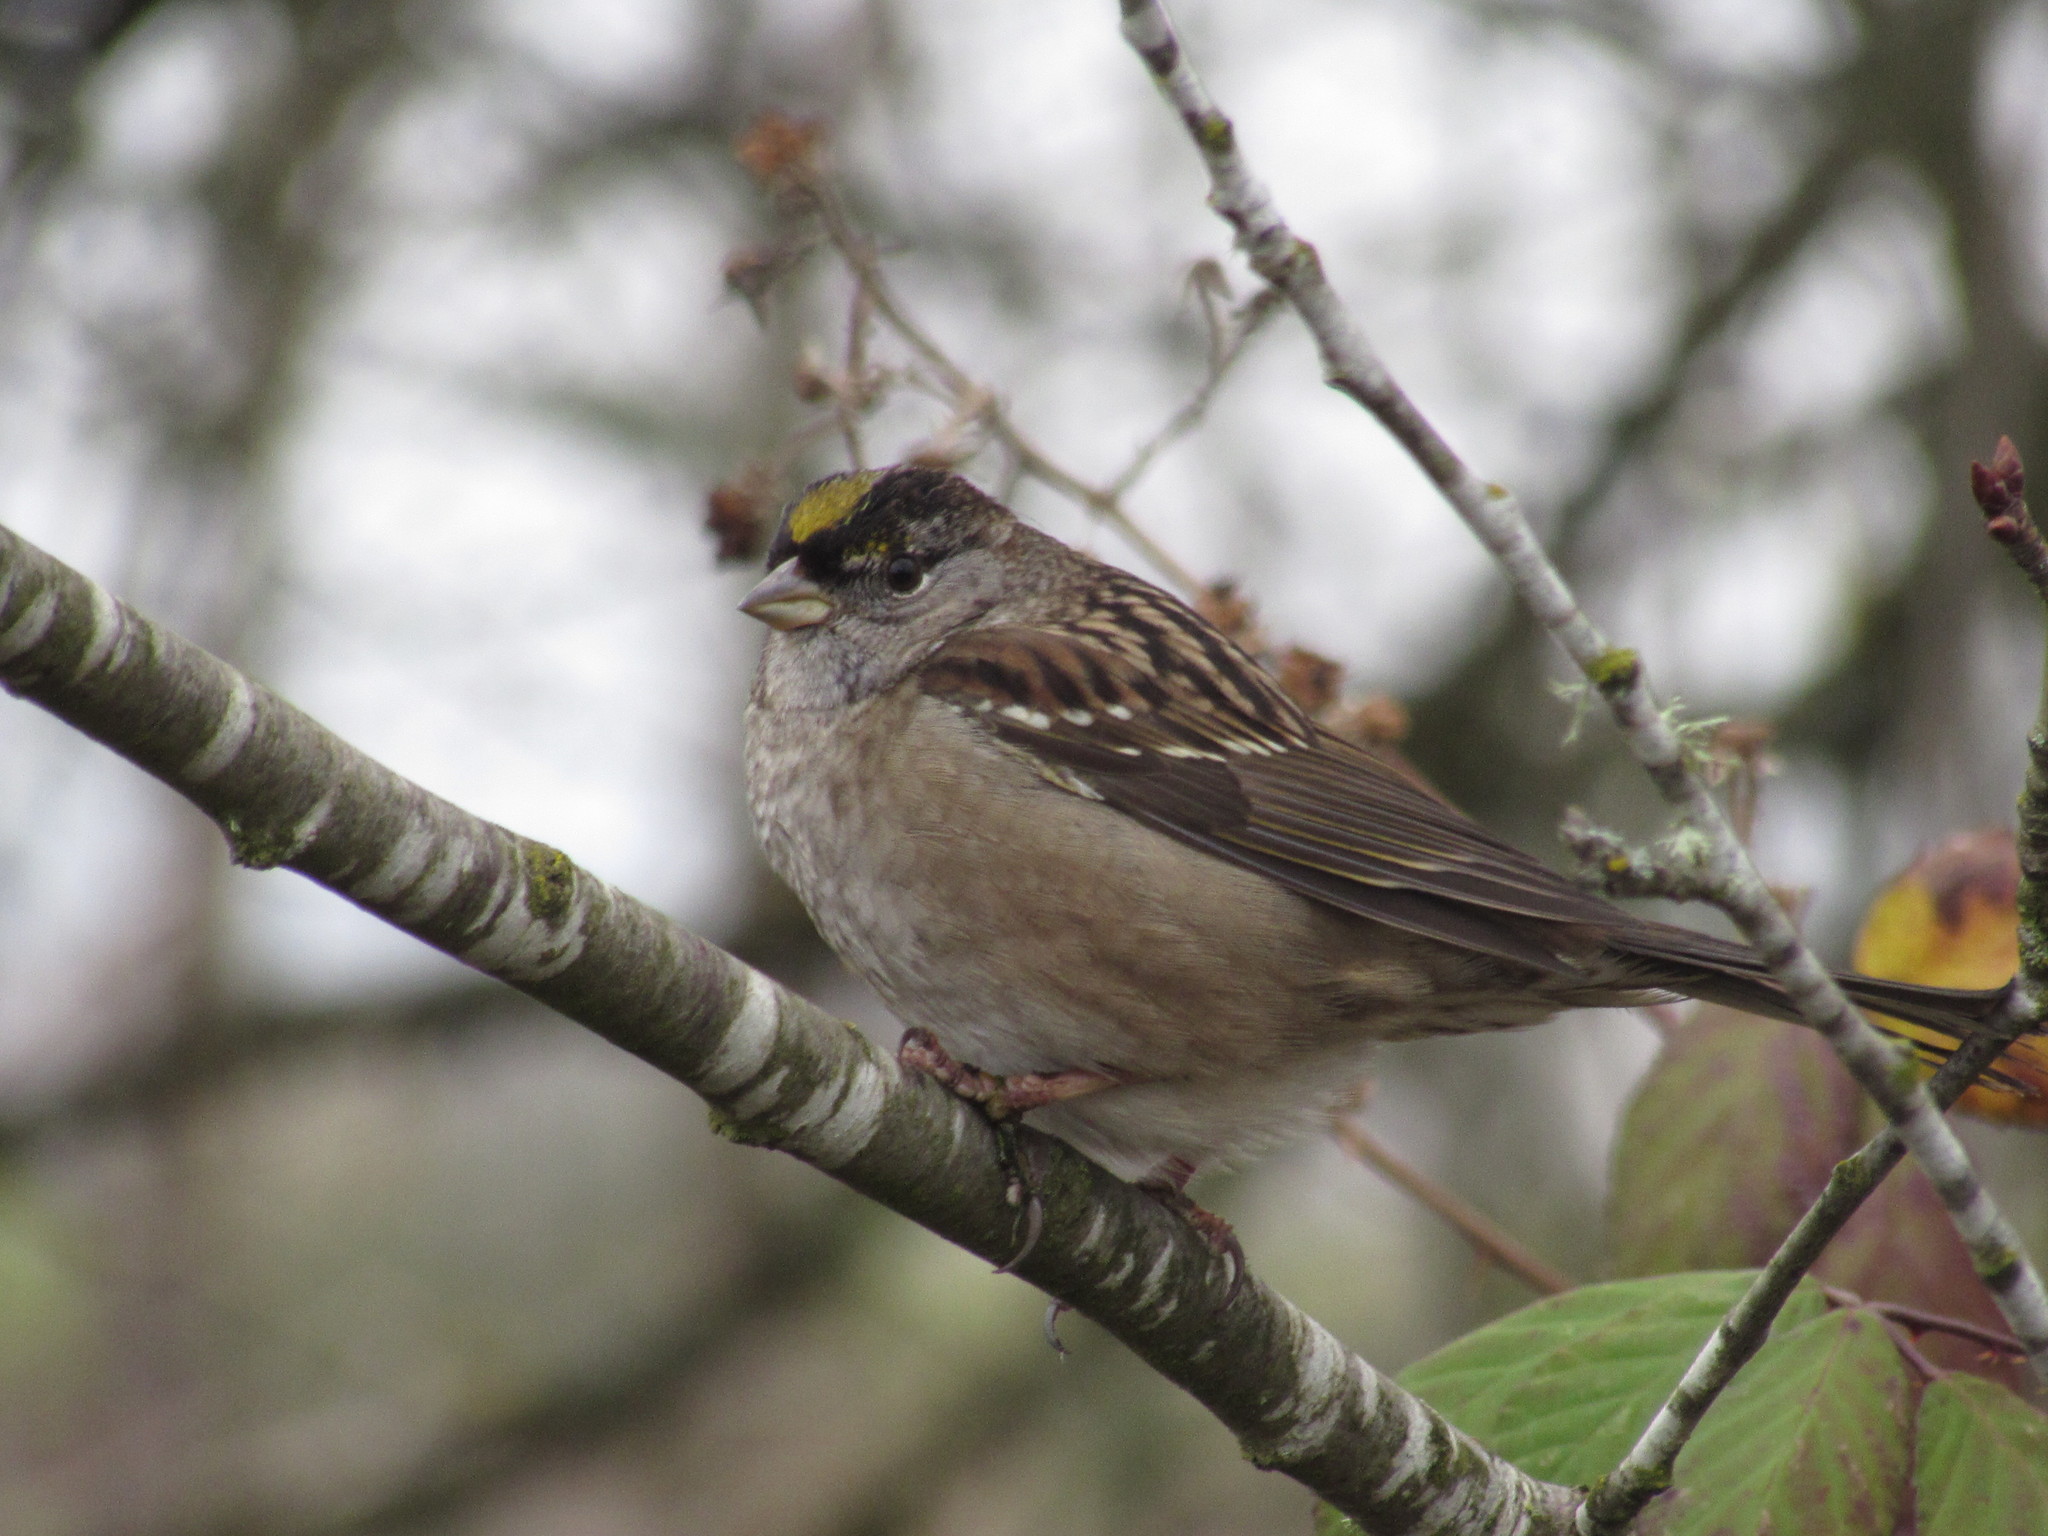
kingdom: Animalia
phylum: Chordata
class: Aves
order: Passeriformes
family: Passerellidae
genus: Zonotrichia
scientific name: Zonotrichia atricapilla
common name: Golden-crowned sparrow
